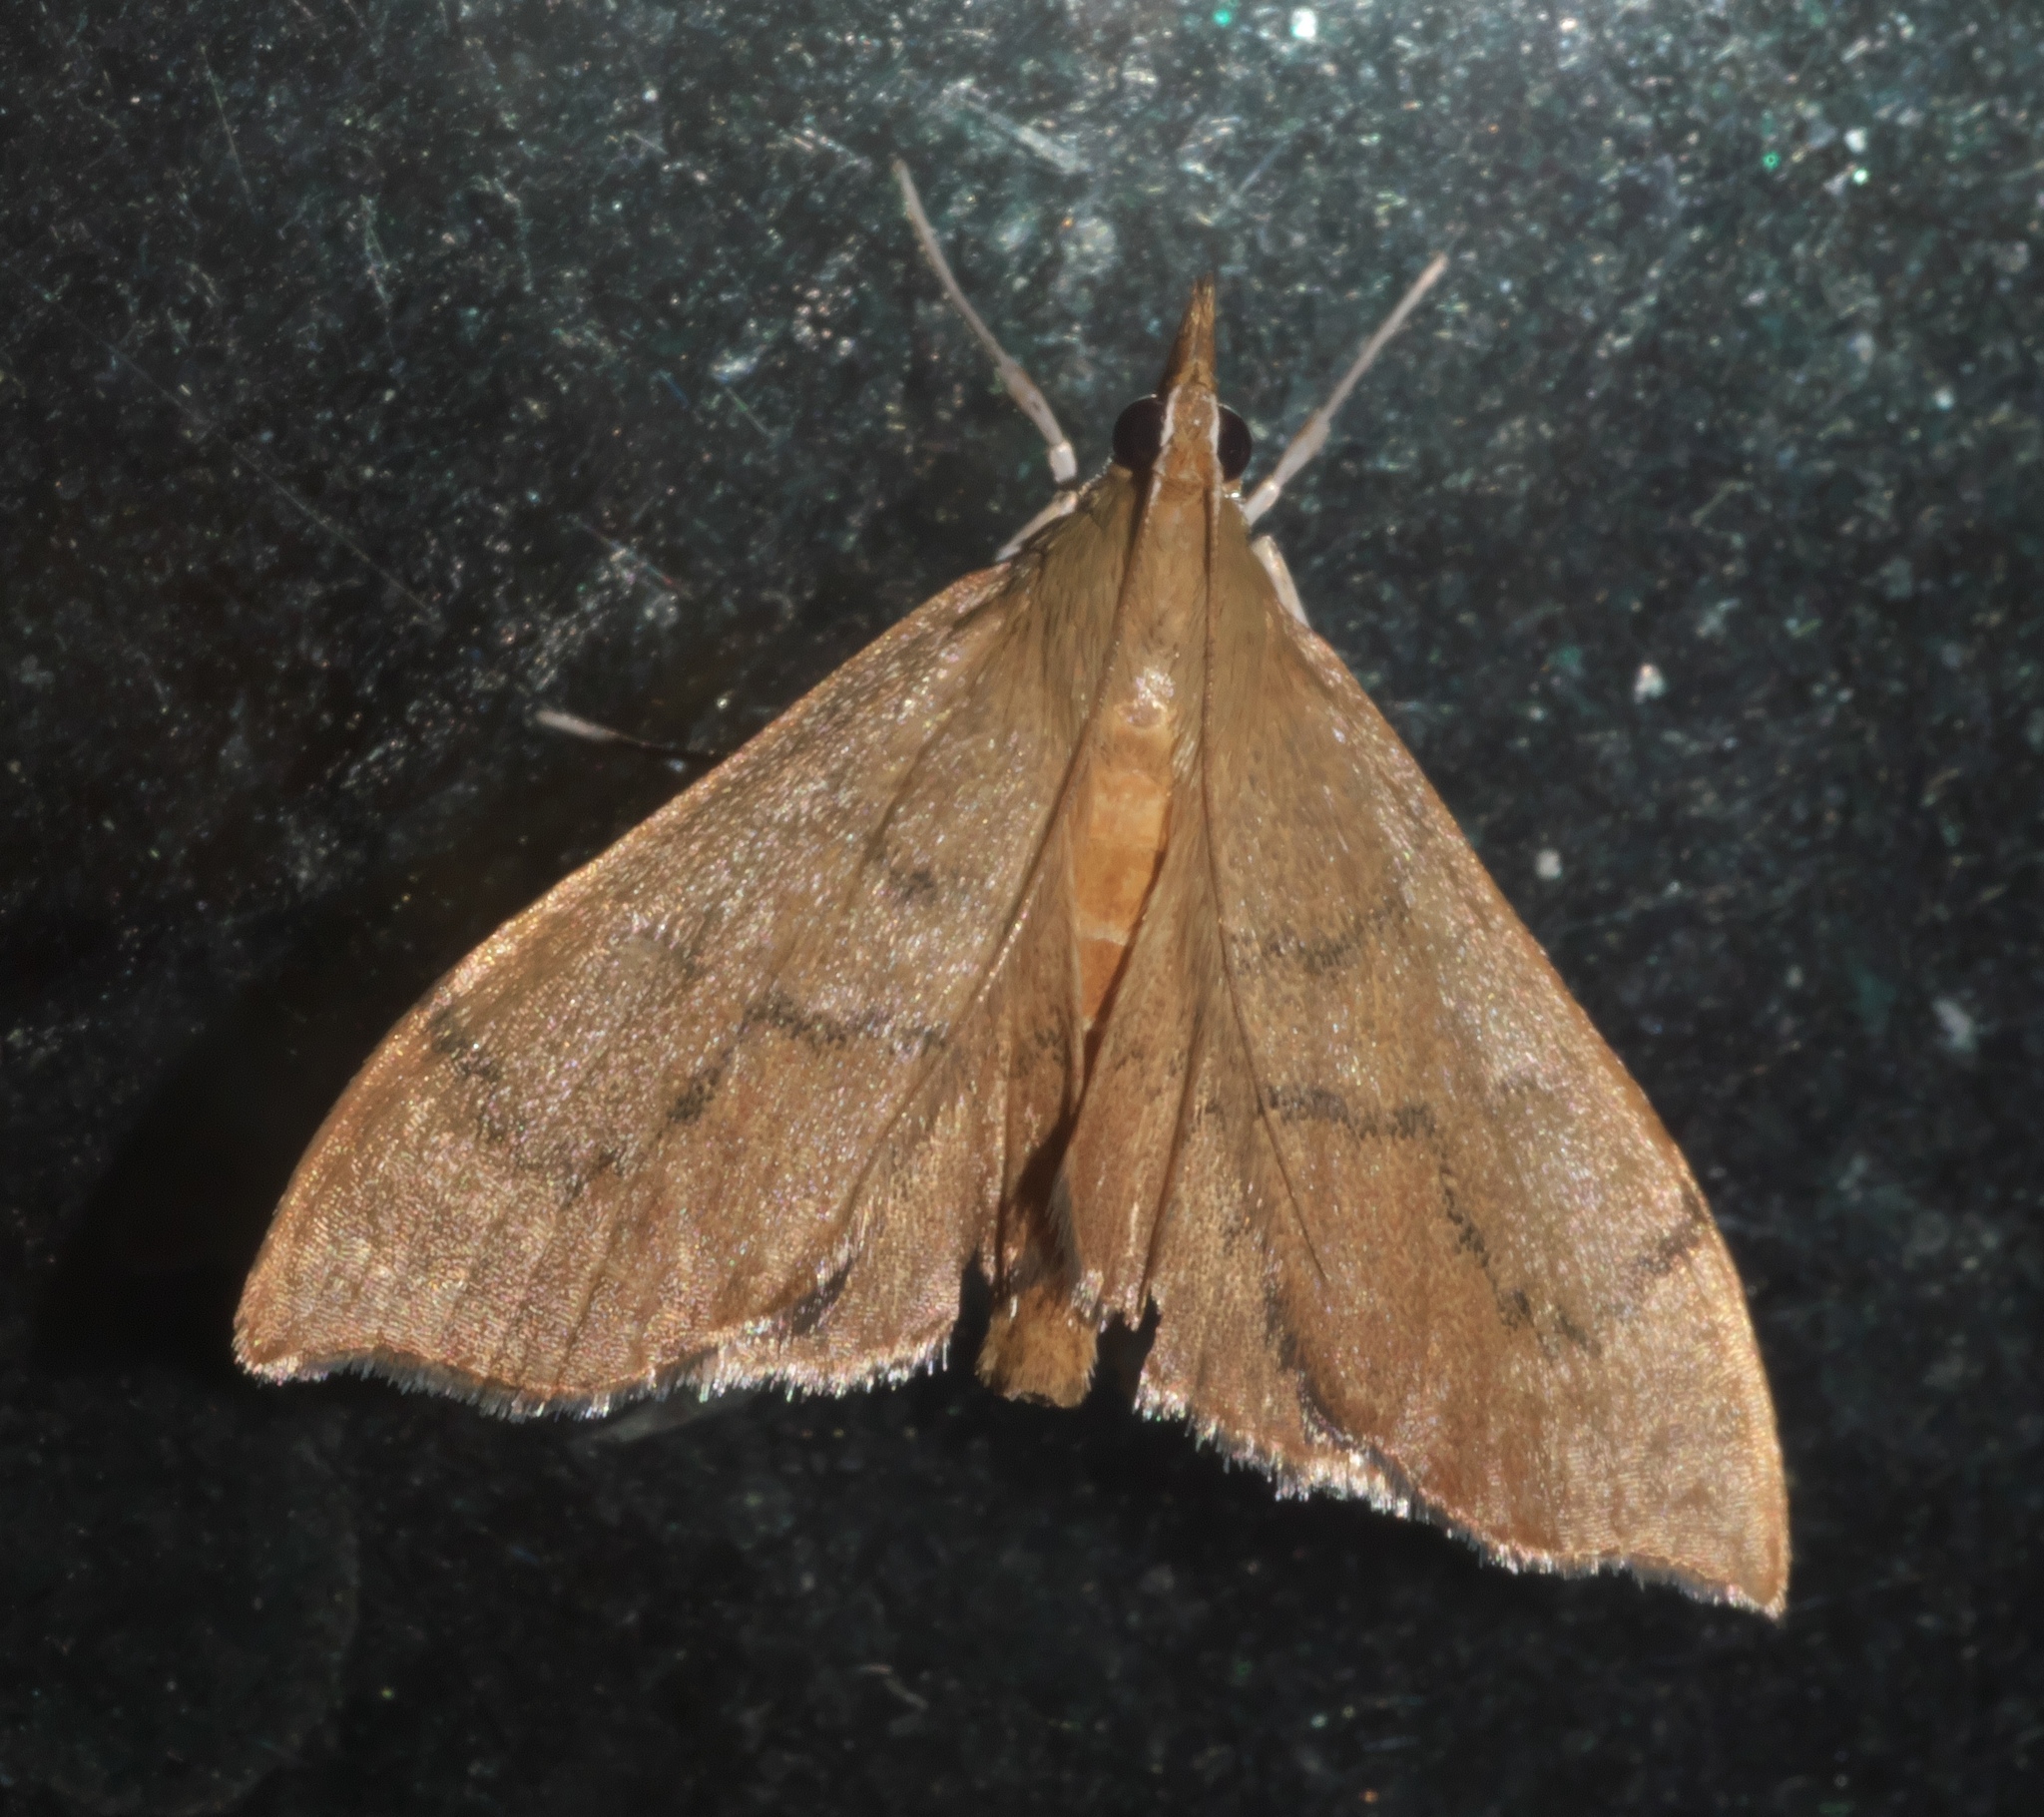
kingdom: Animalia
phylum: Arthropoda
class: Insecta
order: Lepidoptera
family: Crambidae
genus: Sericoplaga
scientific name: Sericoplaga externalis
